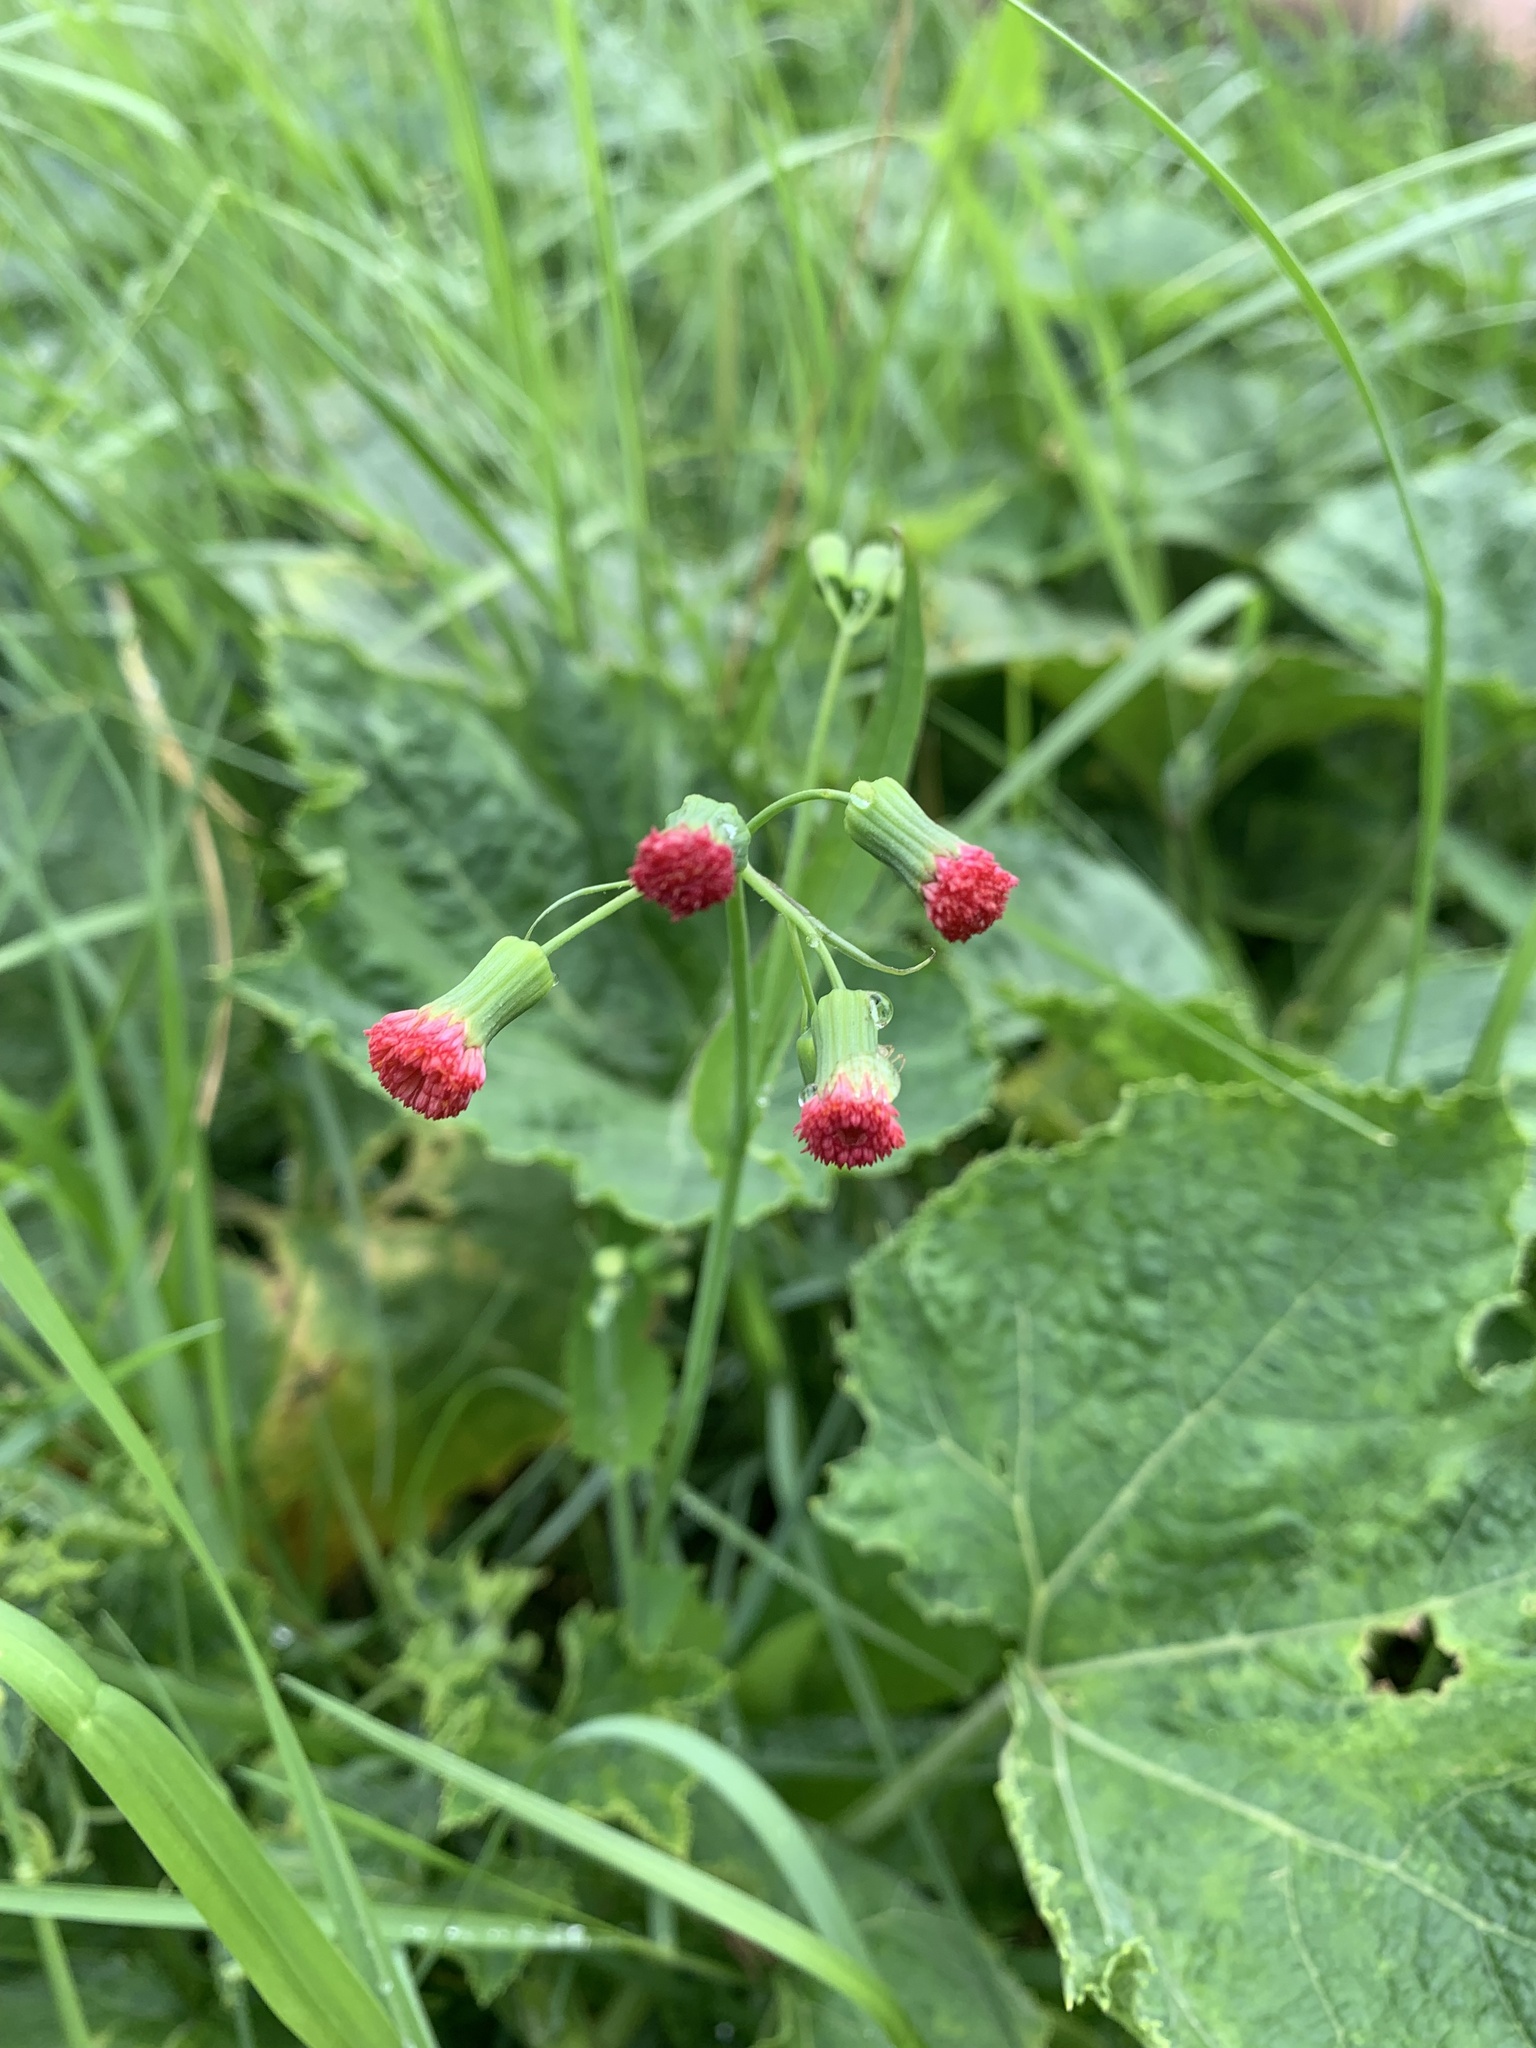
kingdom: Plantae
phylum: Tracheophyta
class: Magnoliopsida
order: Asterales
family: Asteraceae
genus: Emilia
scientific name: Emilia fosbergii
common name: Florida tasselflower
